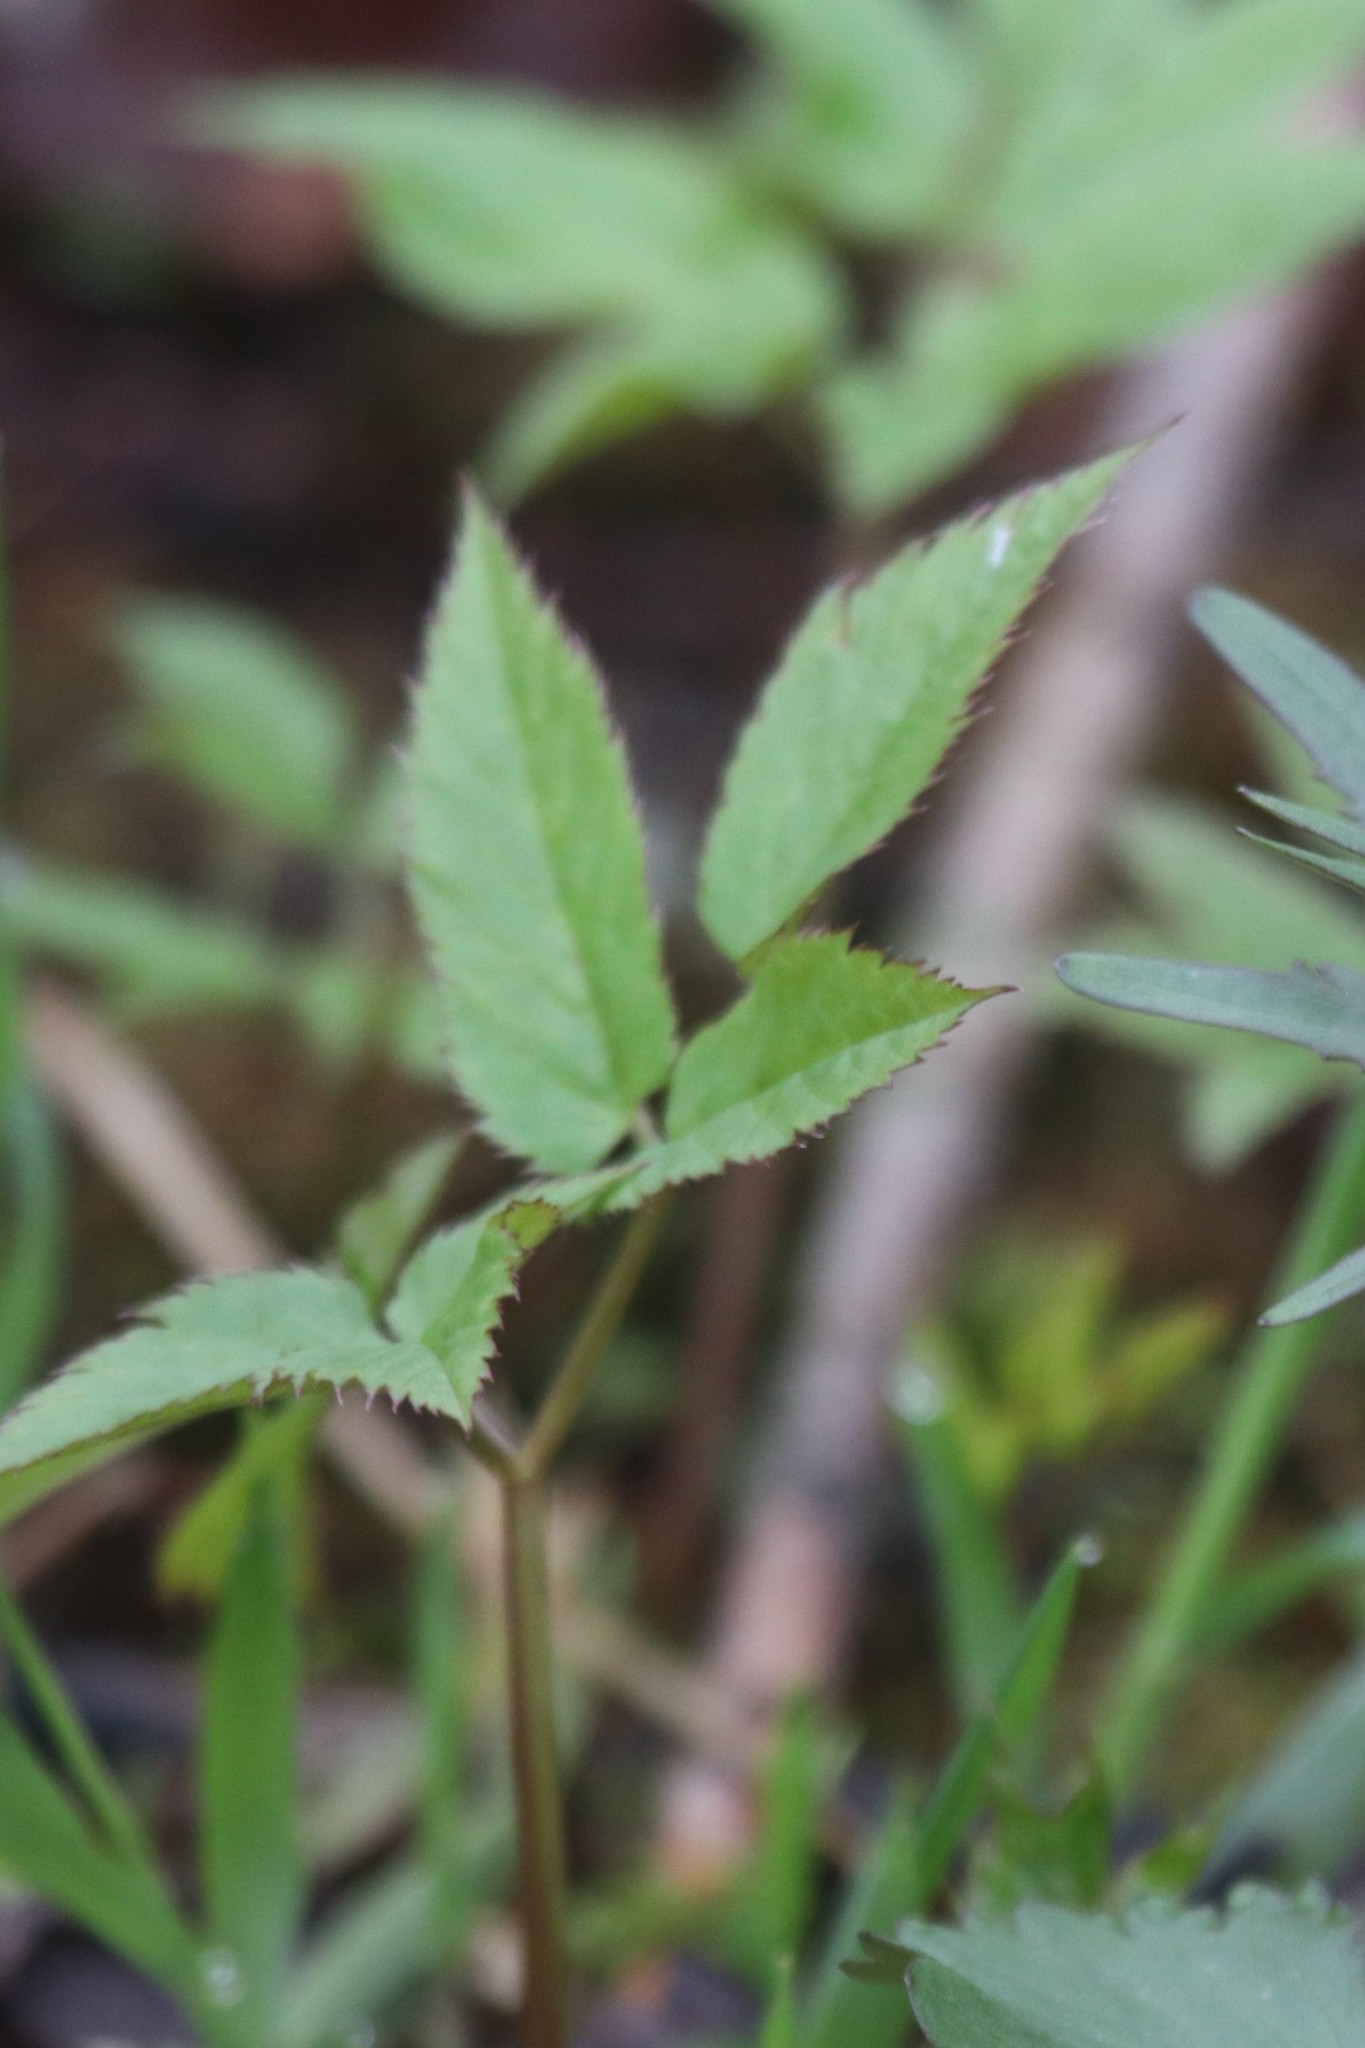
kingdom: Plantae
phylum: Tracheophyta
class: Magnoliopsida
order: Apiales
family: Apiaceae
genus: Aegopodium
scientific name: Aegopodium podagraria
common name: Ground-elder
